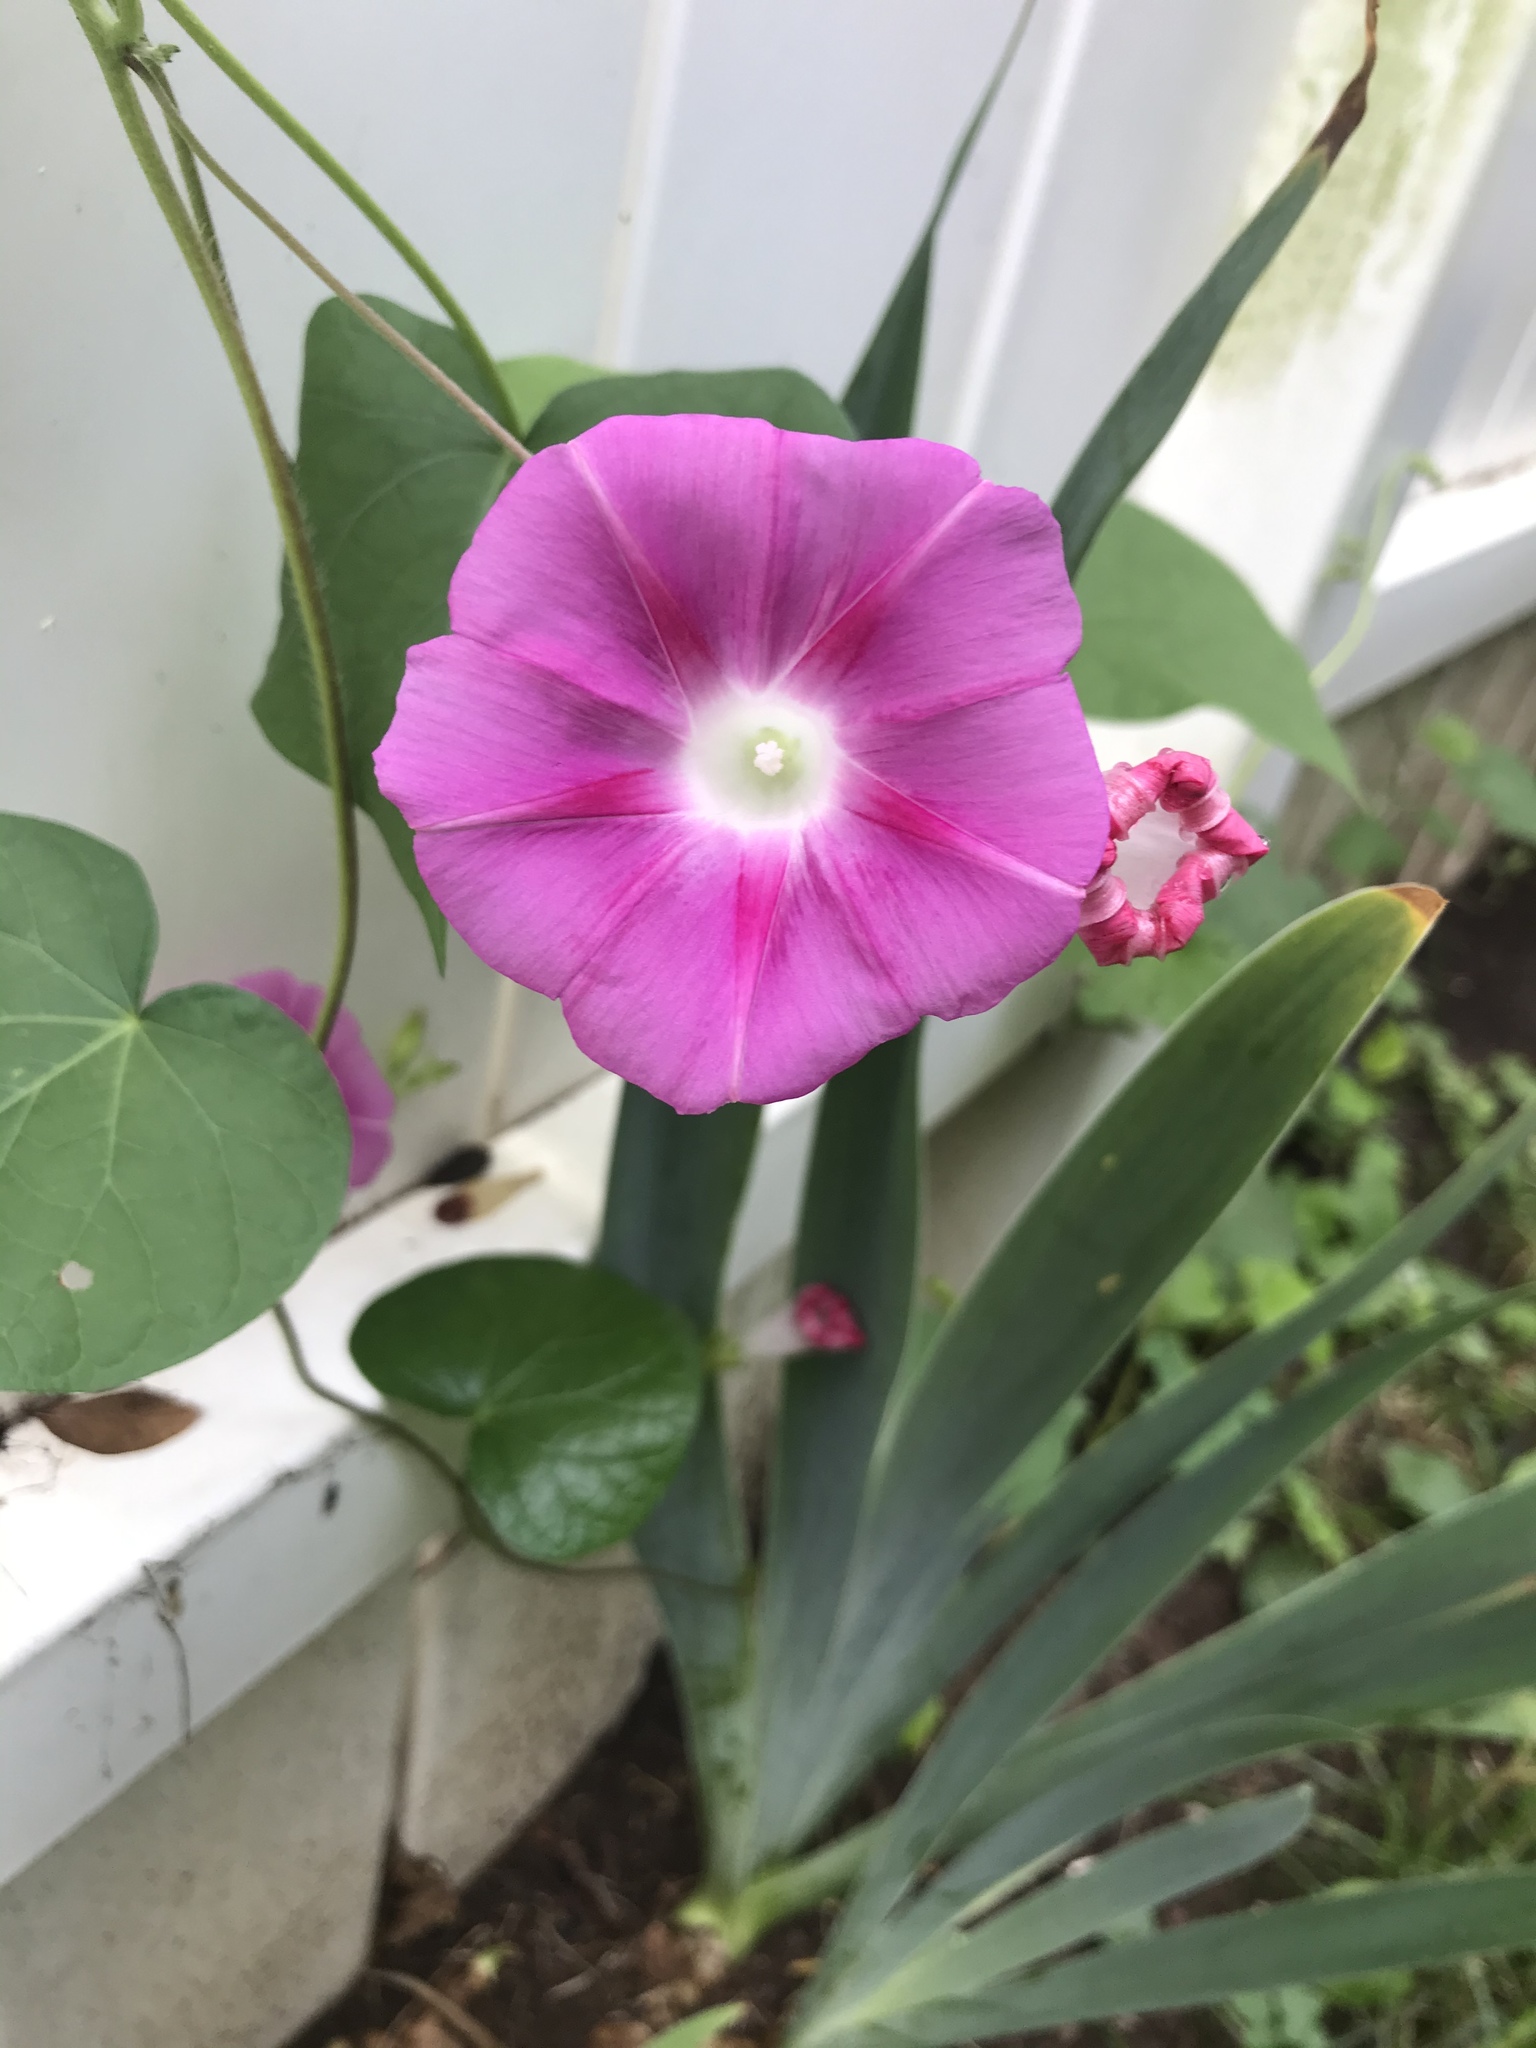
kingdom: Plantae
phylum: Tracheophyta
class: Magnoliopsida
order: Solanales
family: Convolvulaceae
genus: Ipomoea
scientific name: Ipomoea purpurea
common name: Common morning-glory
